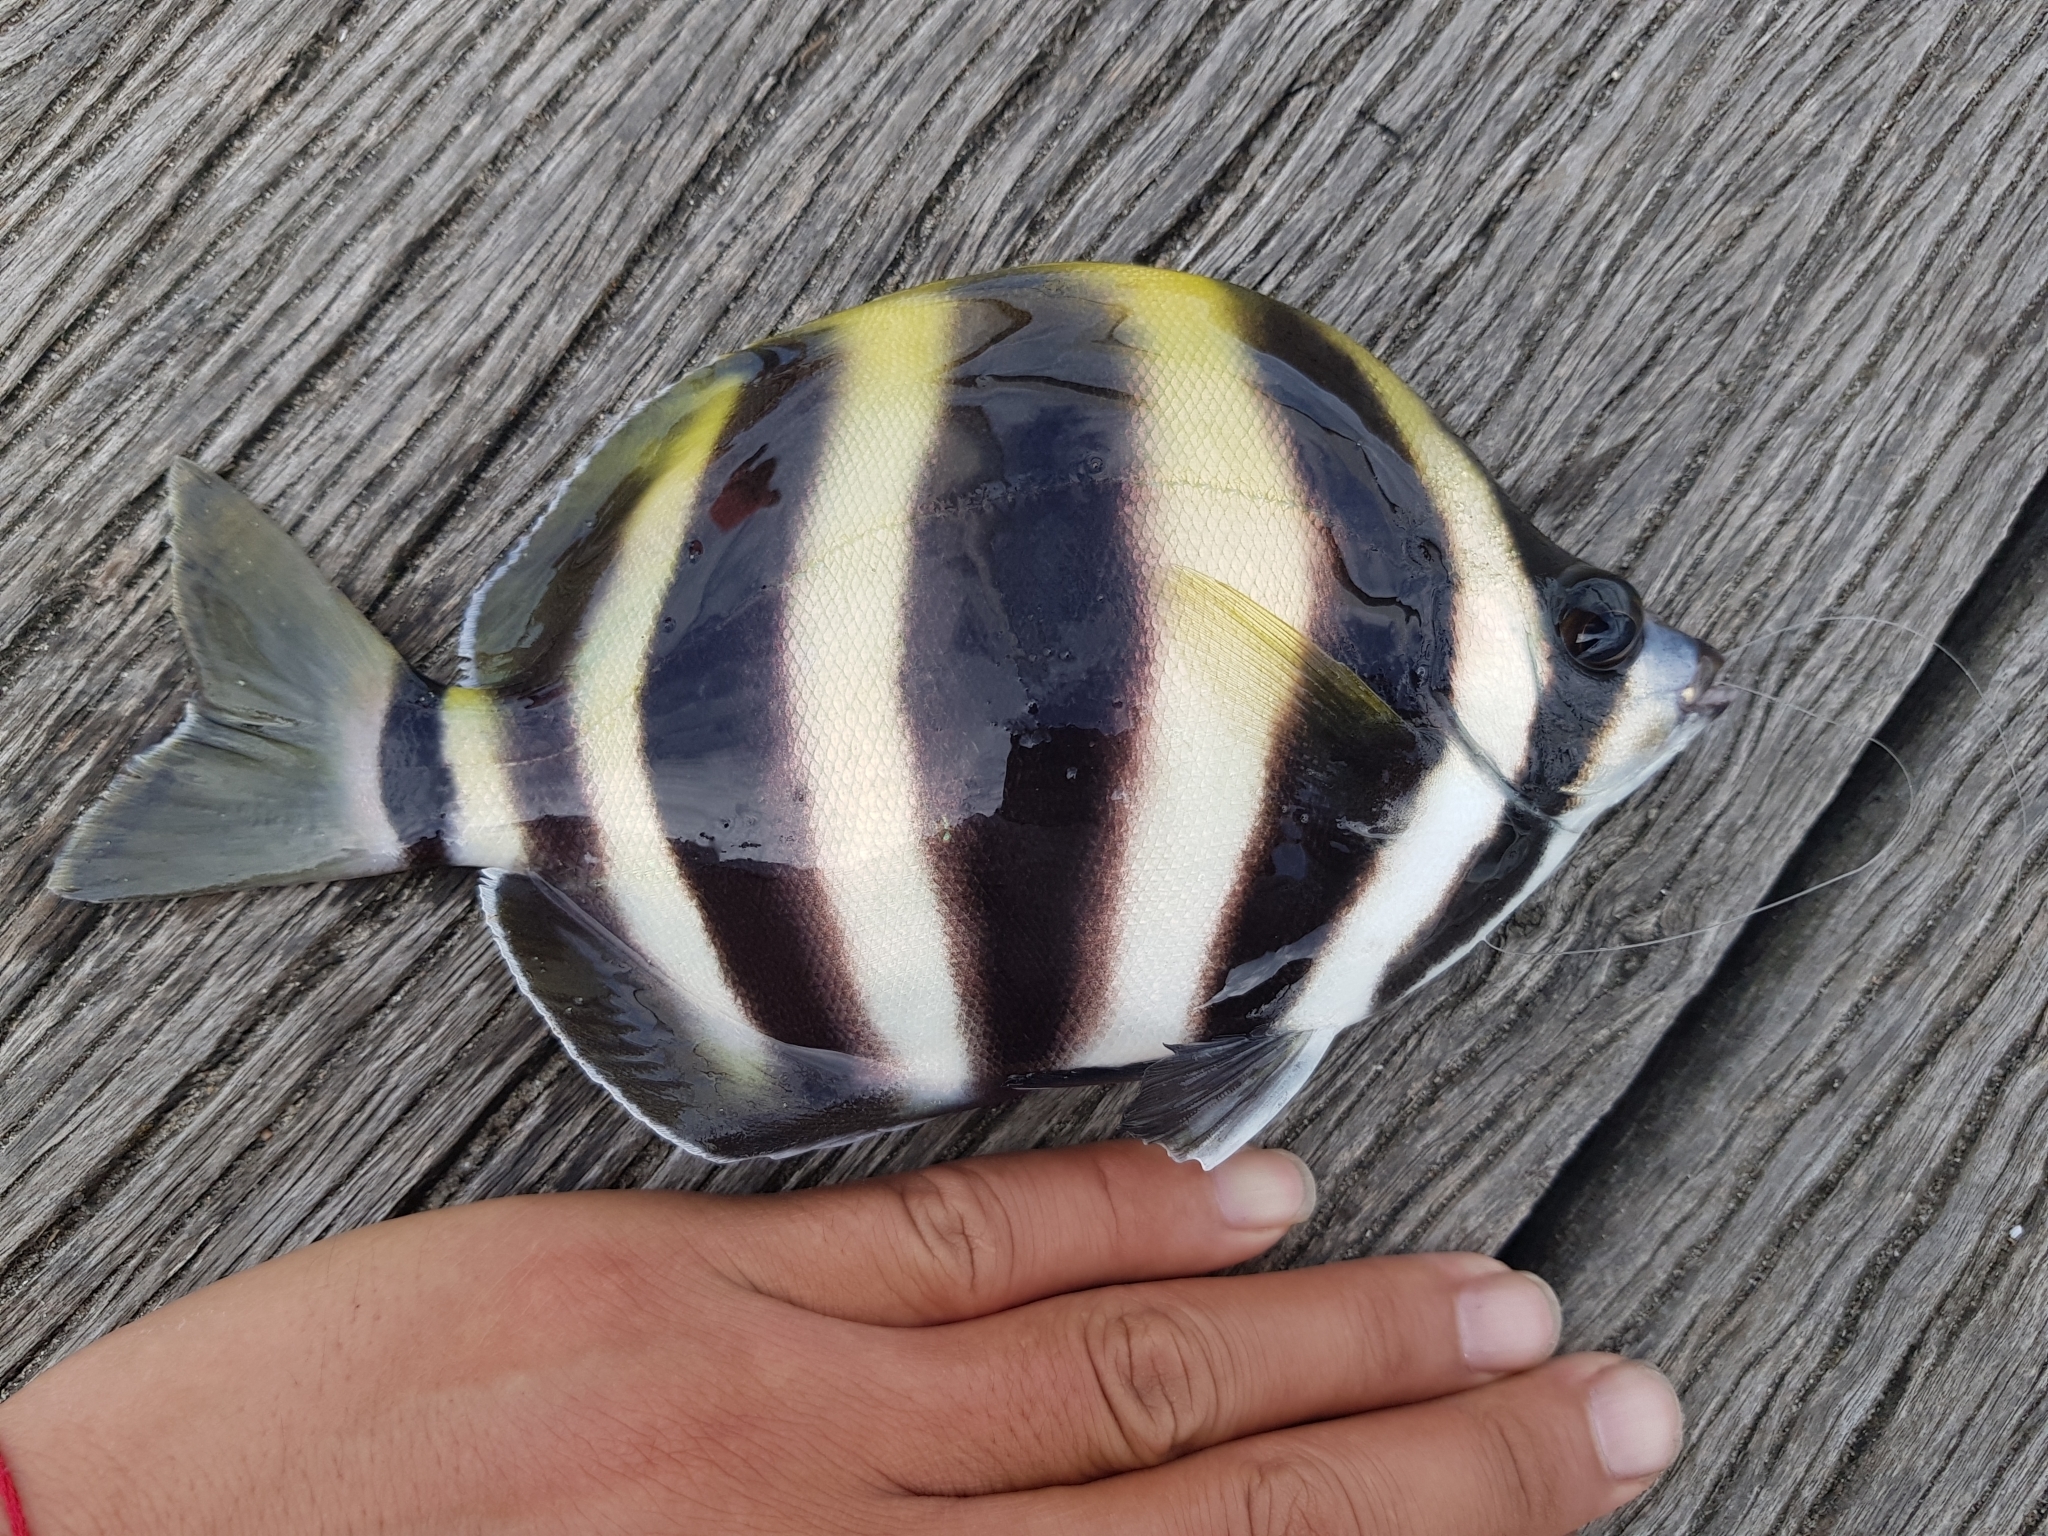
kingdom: Animalia
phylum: Chordata
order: Perciformes
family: Kyphosidae
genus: Tilodon
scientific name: Tilodon sexfasciatus
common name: Moonlighter
